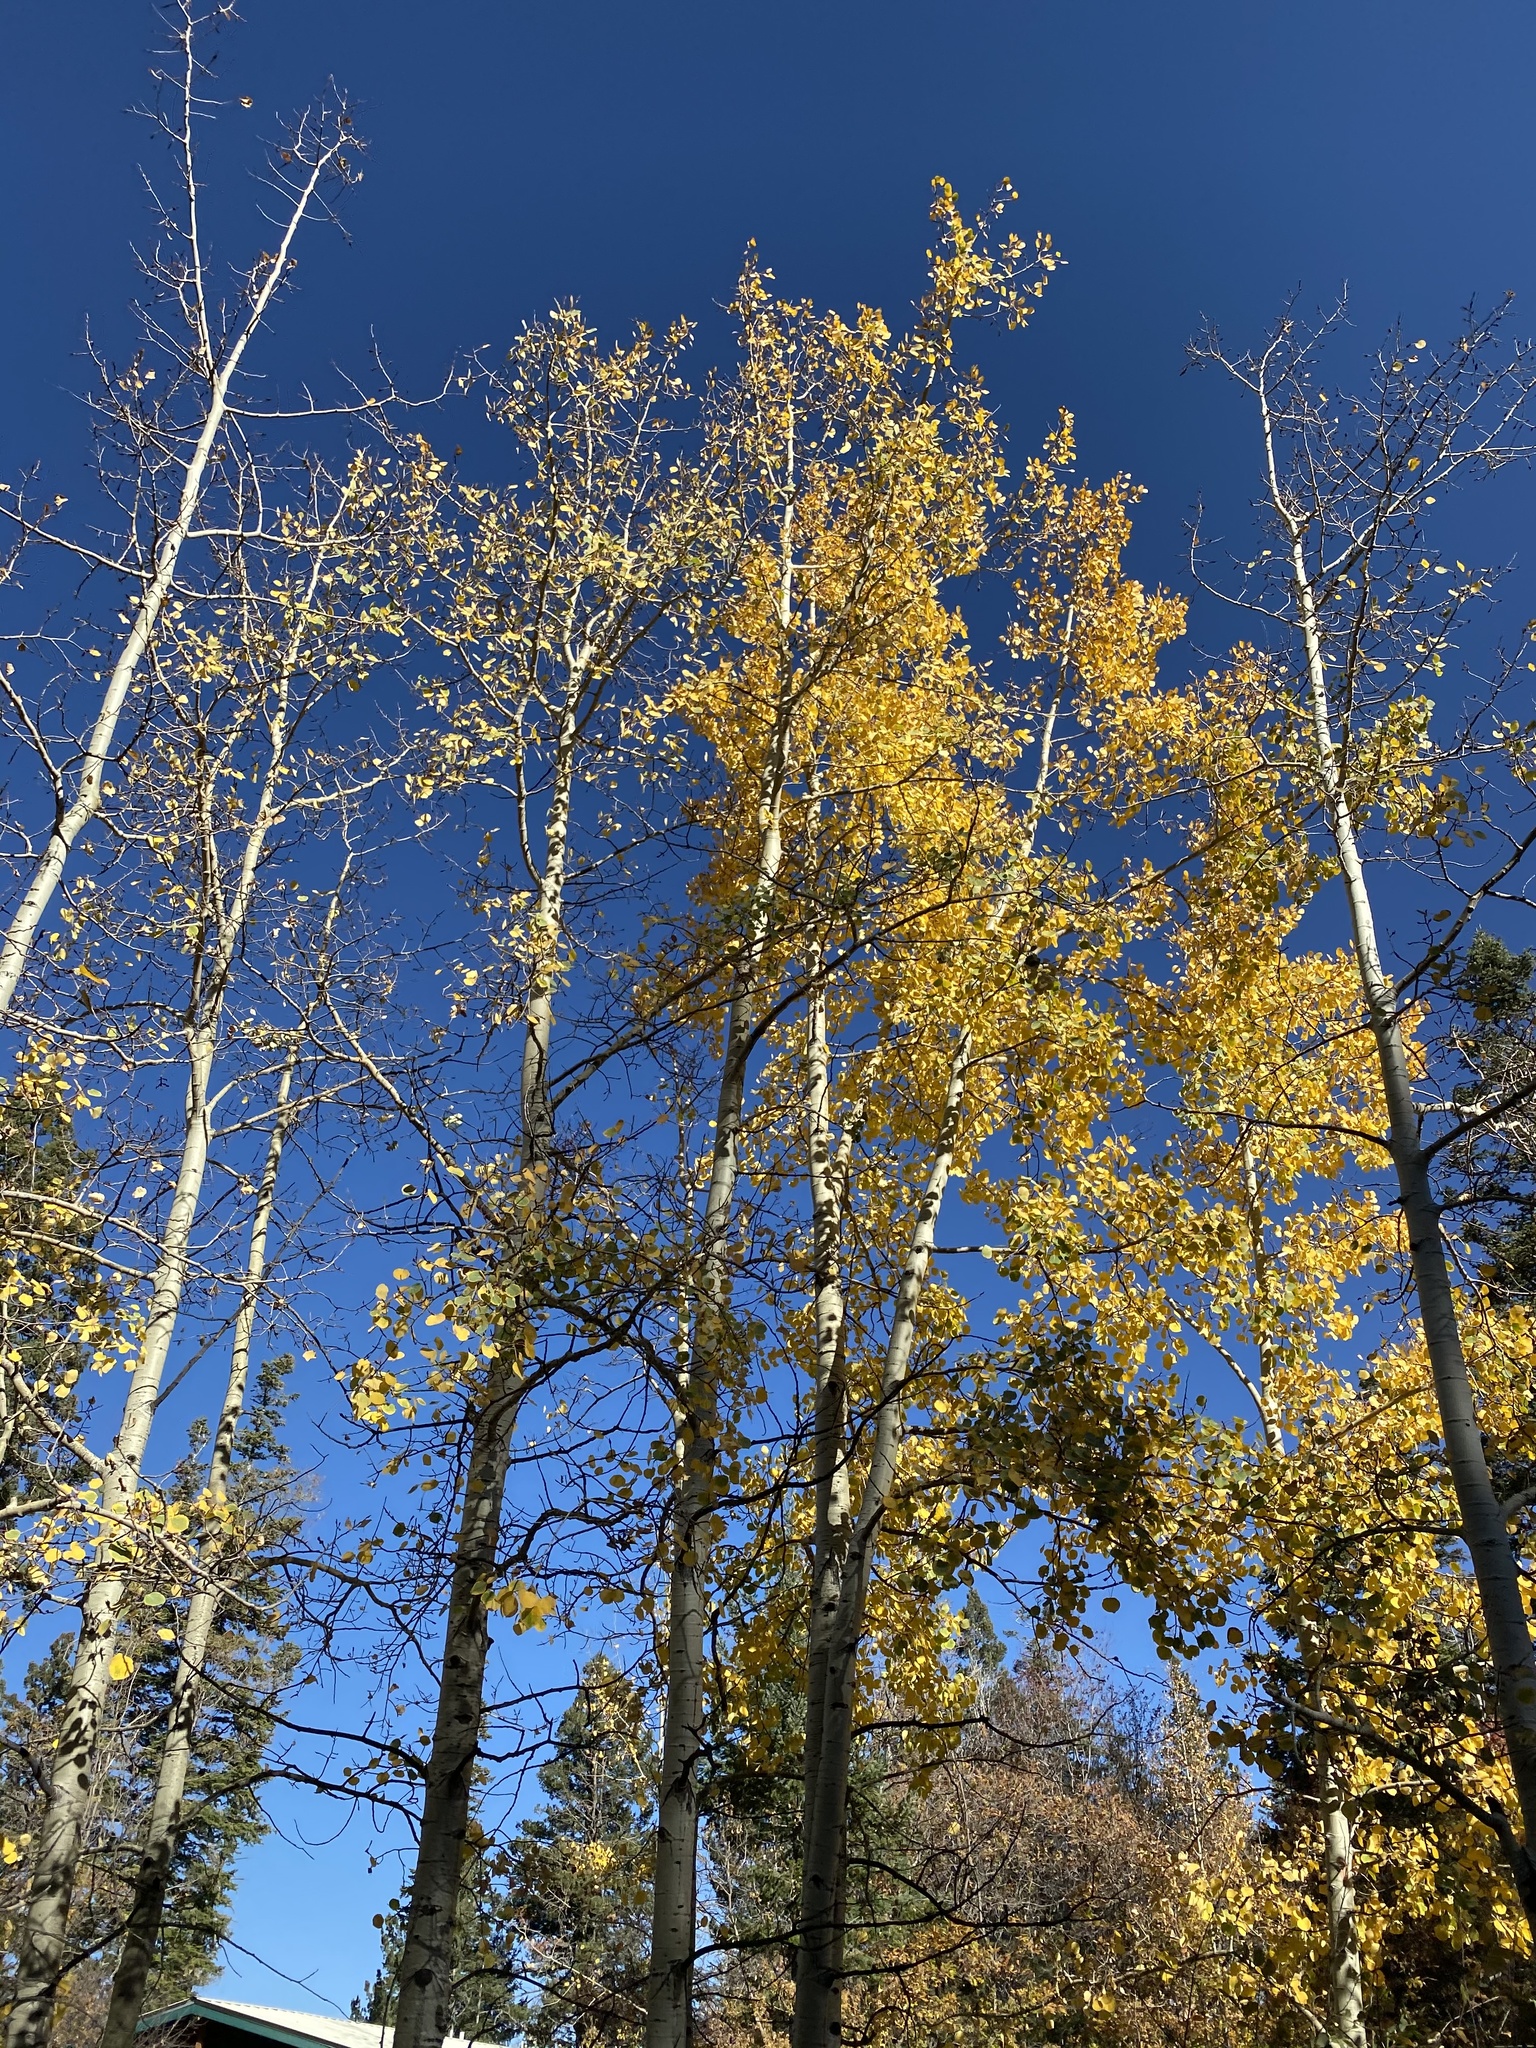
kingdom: Plantae
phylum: Tracheophyta
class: Magnoliopsida
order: Malpighiales
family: Salicaceae
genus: Populus
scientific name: Populus tremuloides
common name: Quaking aspen
